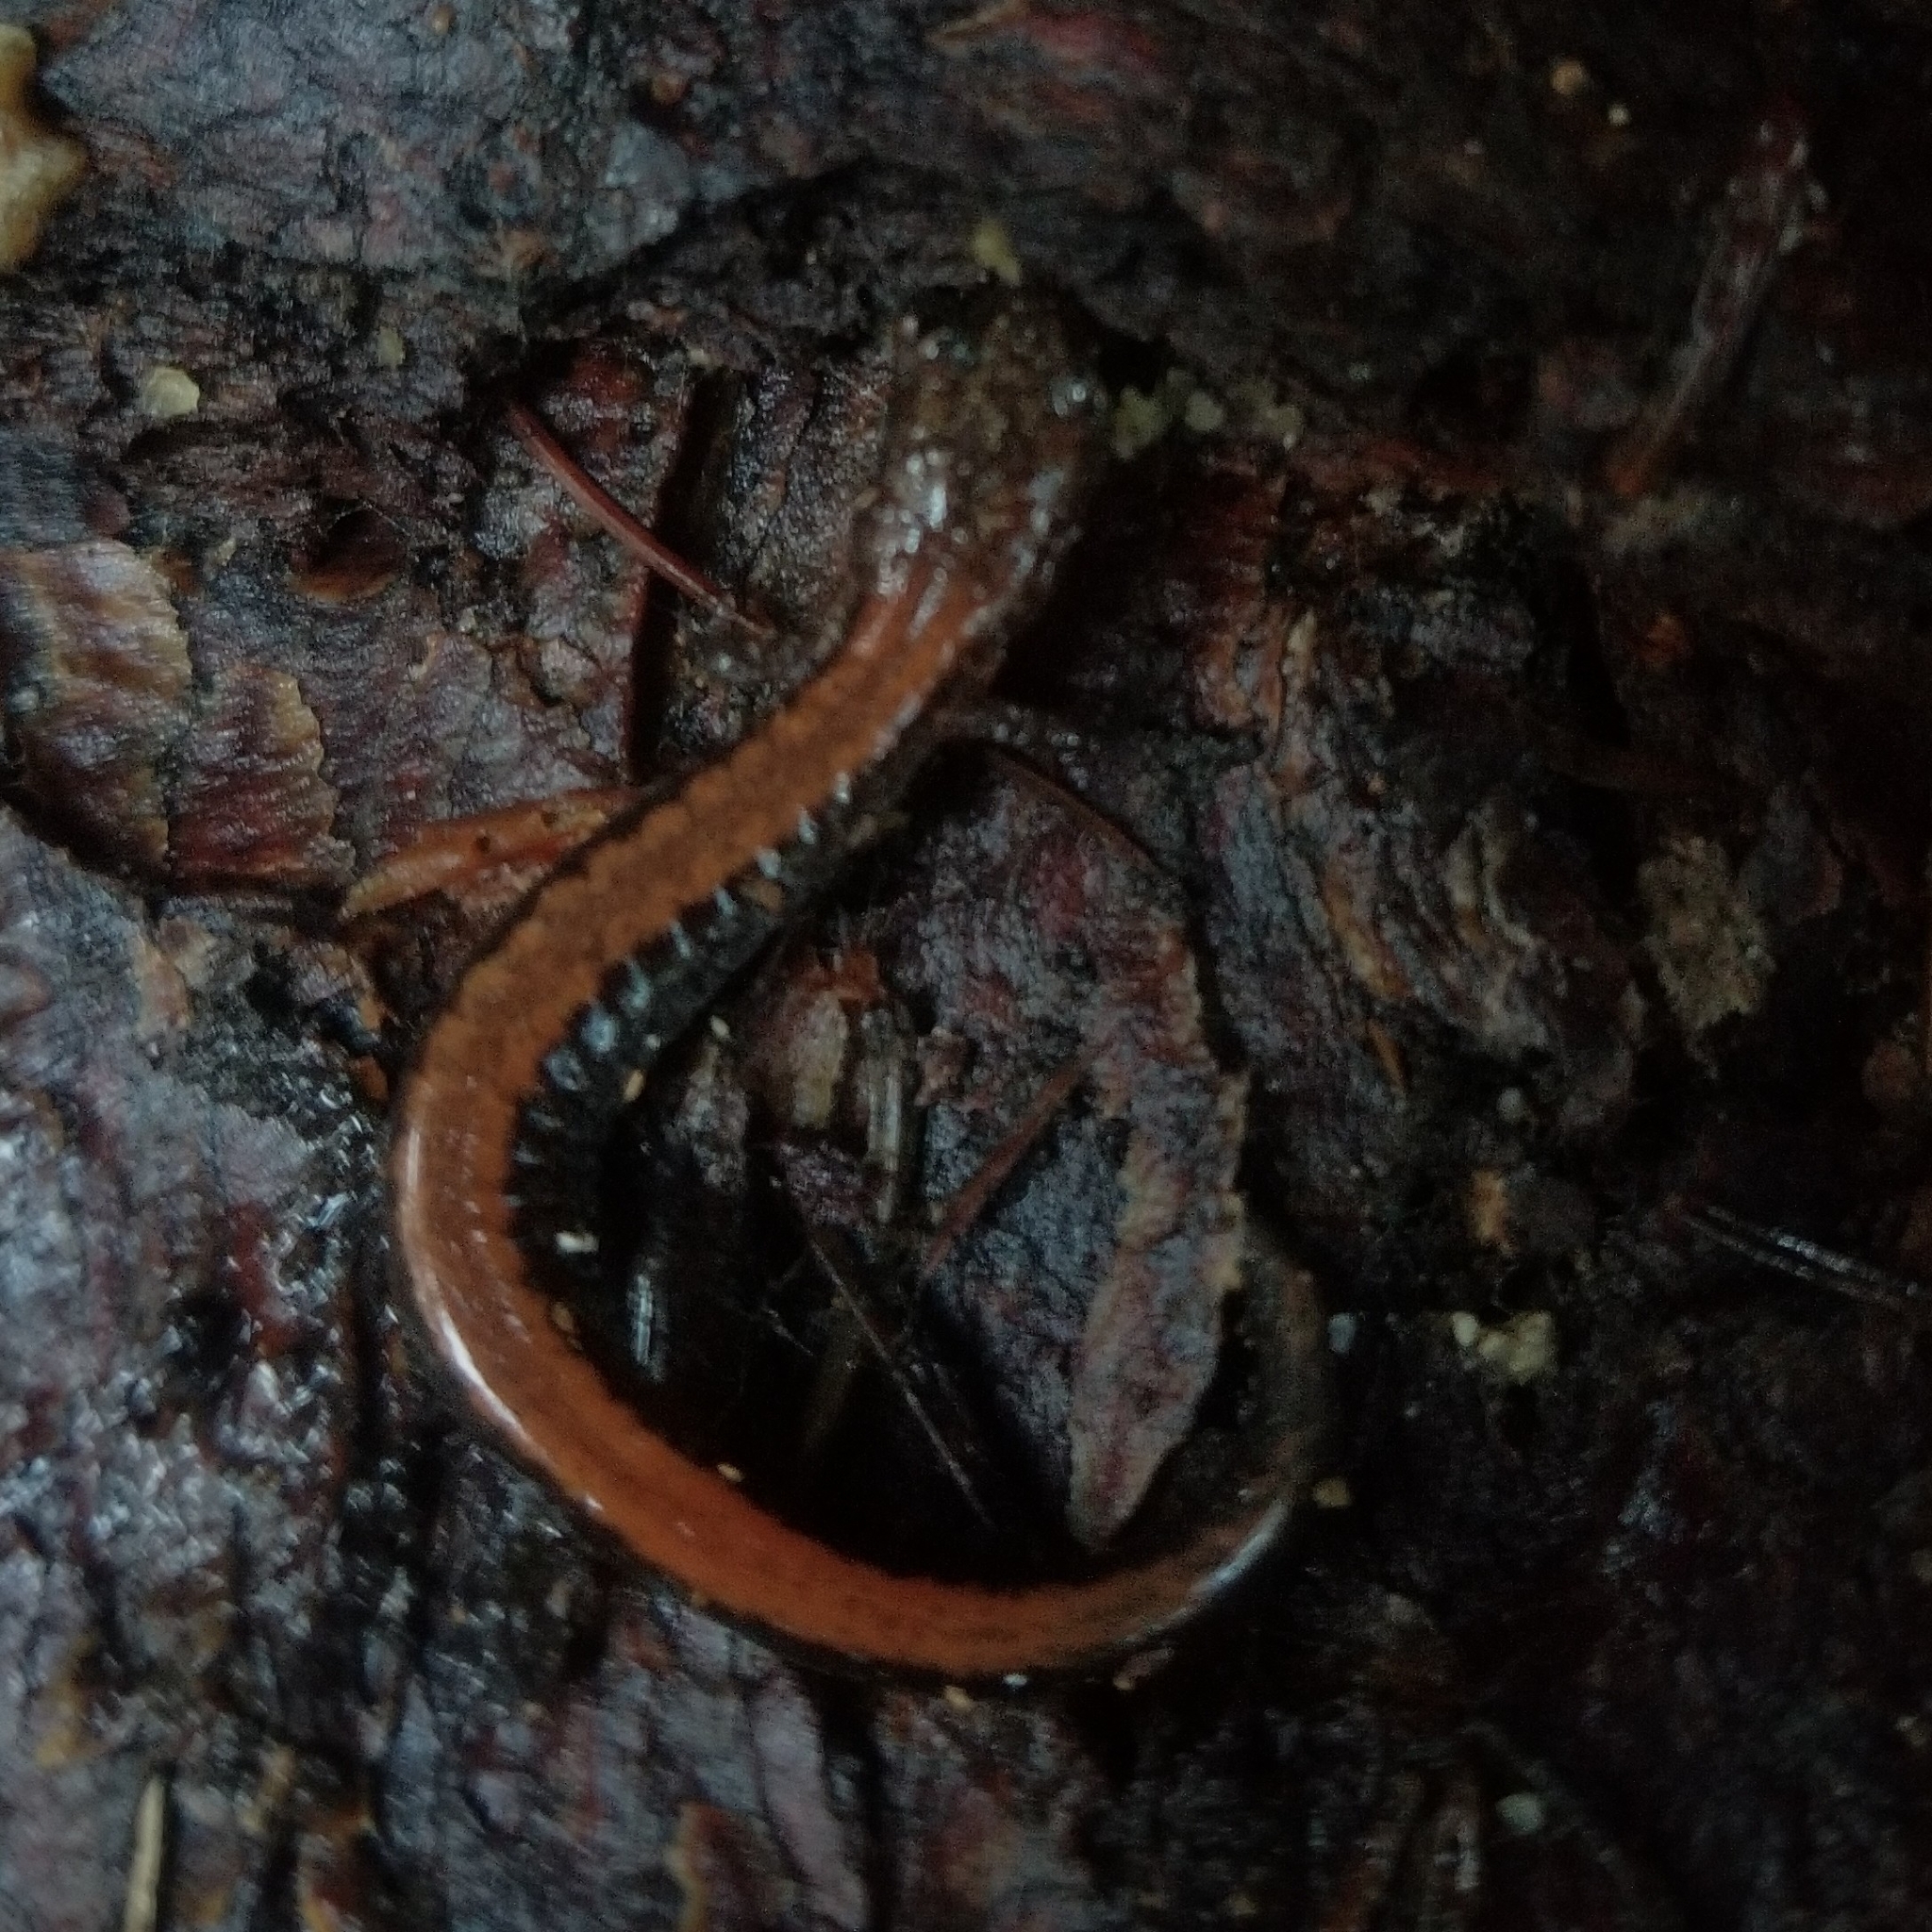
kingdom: Animalia
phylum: Chordata
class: Amphibia
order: Caudata
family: Plethodontidae
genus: Plethodon
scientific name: Plethodon cinereus
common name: Redback salamander
